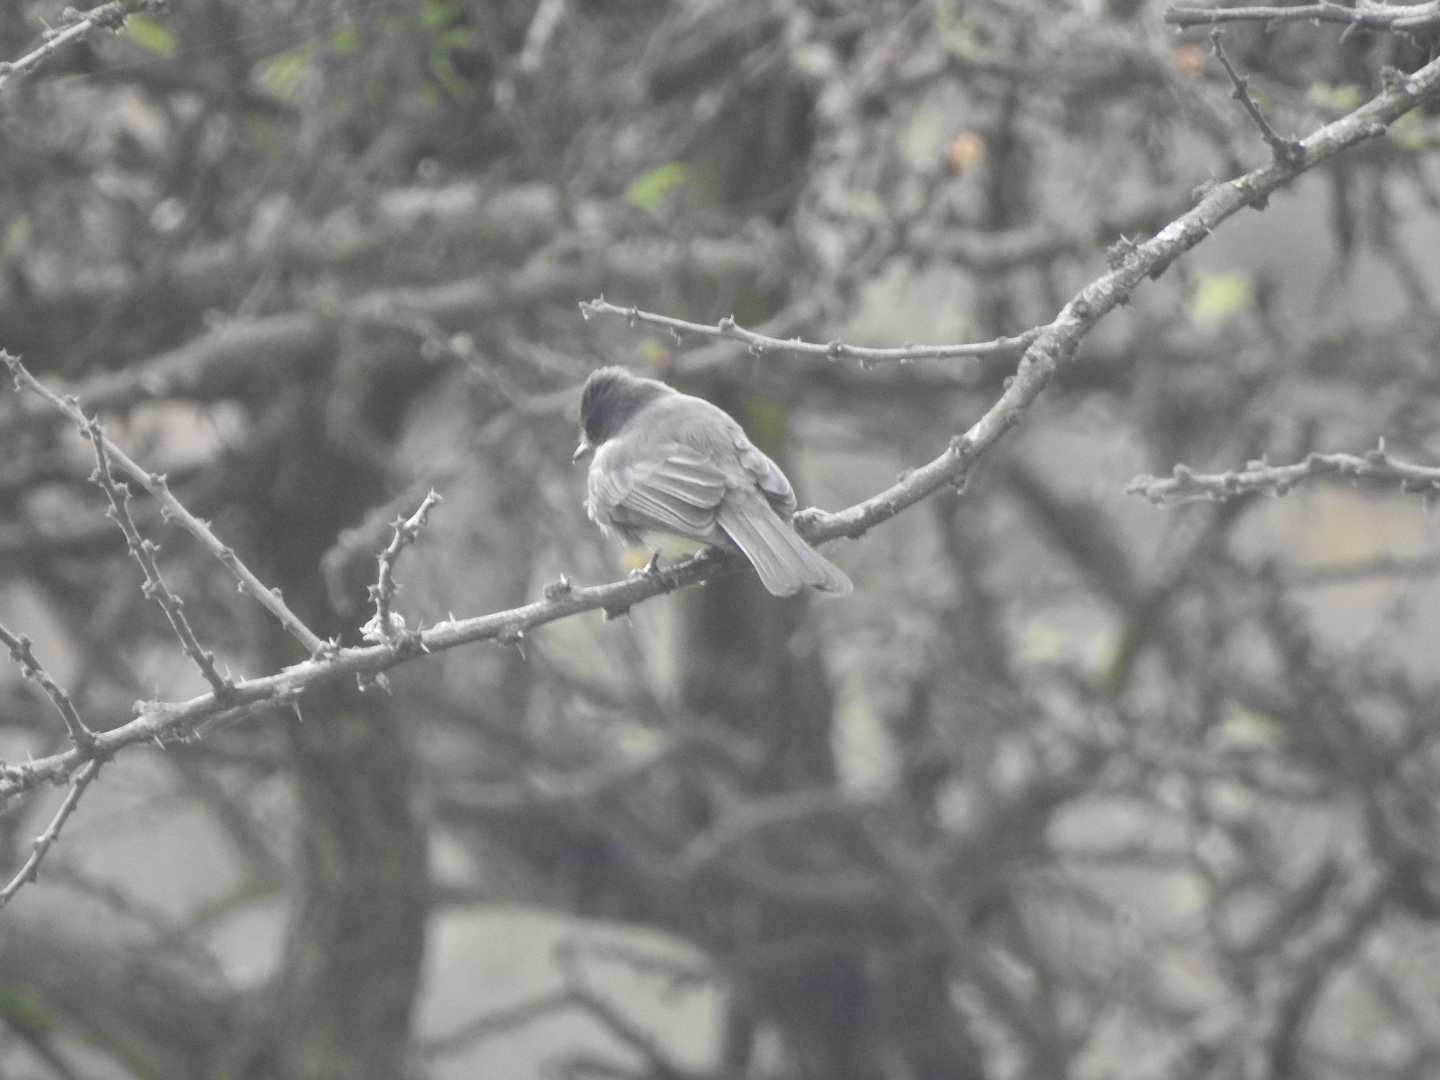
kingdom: Animalia
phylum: Chordata
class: Aves
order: Passeriformes
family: Tyrannidae
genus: Sayornis
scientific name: Sayornis nigricans
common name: Black phoebe
